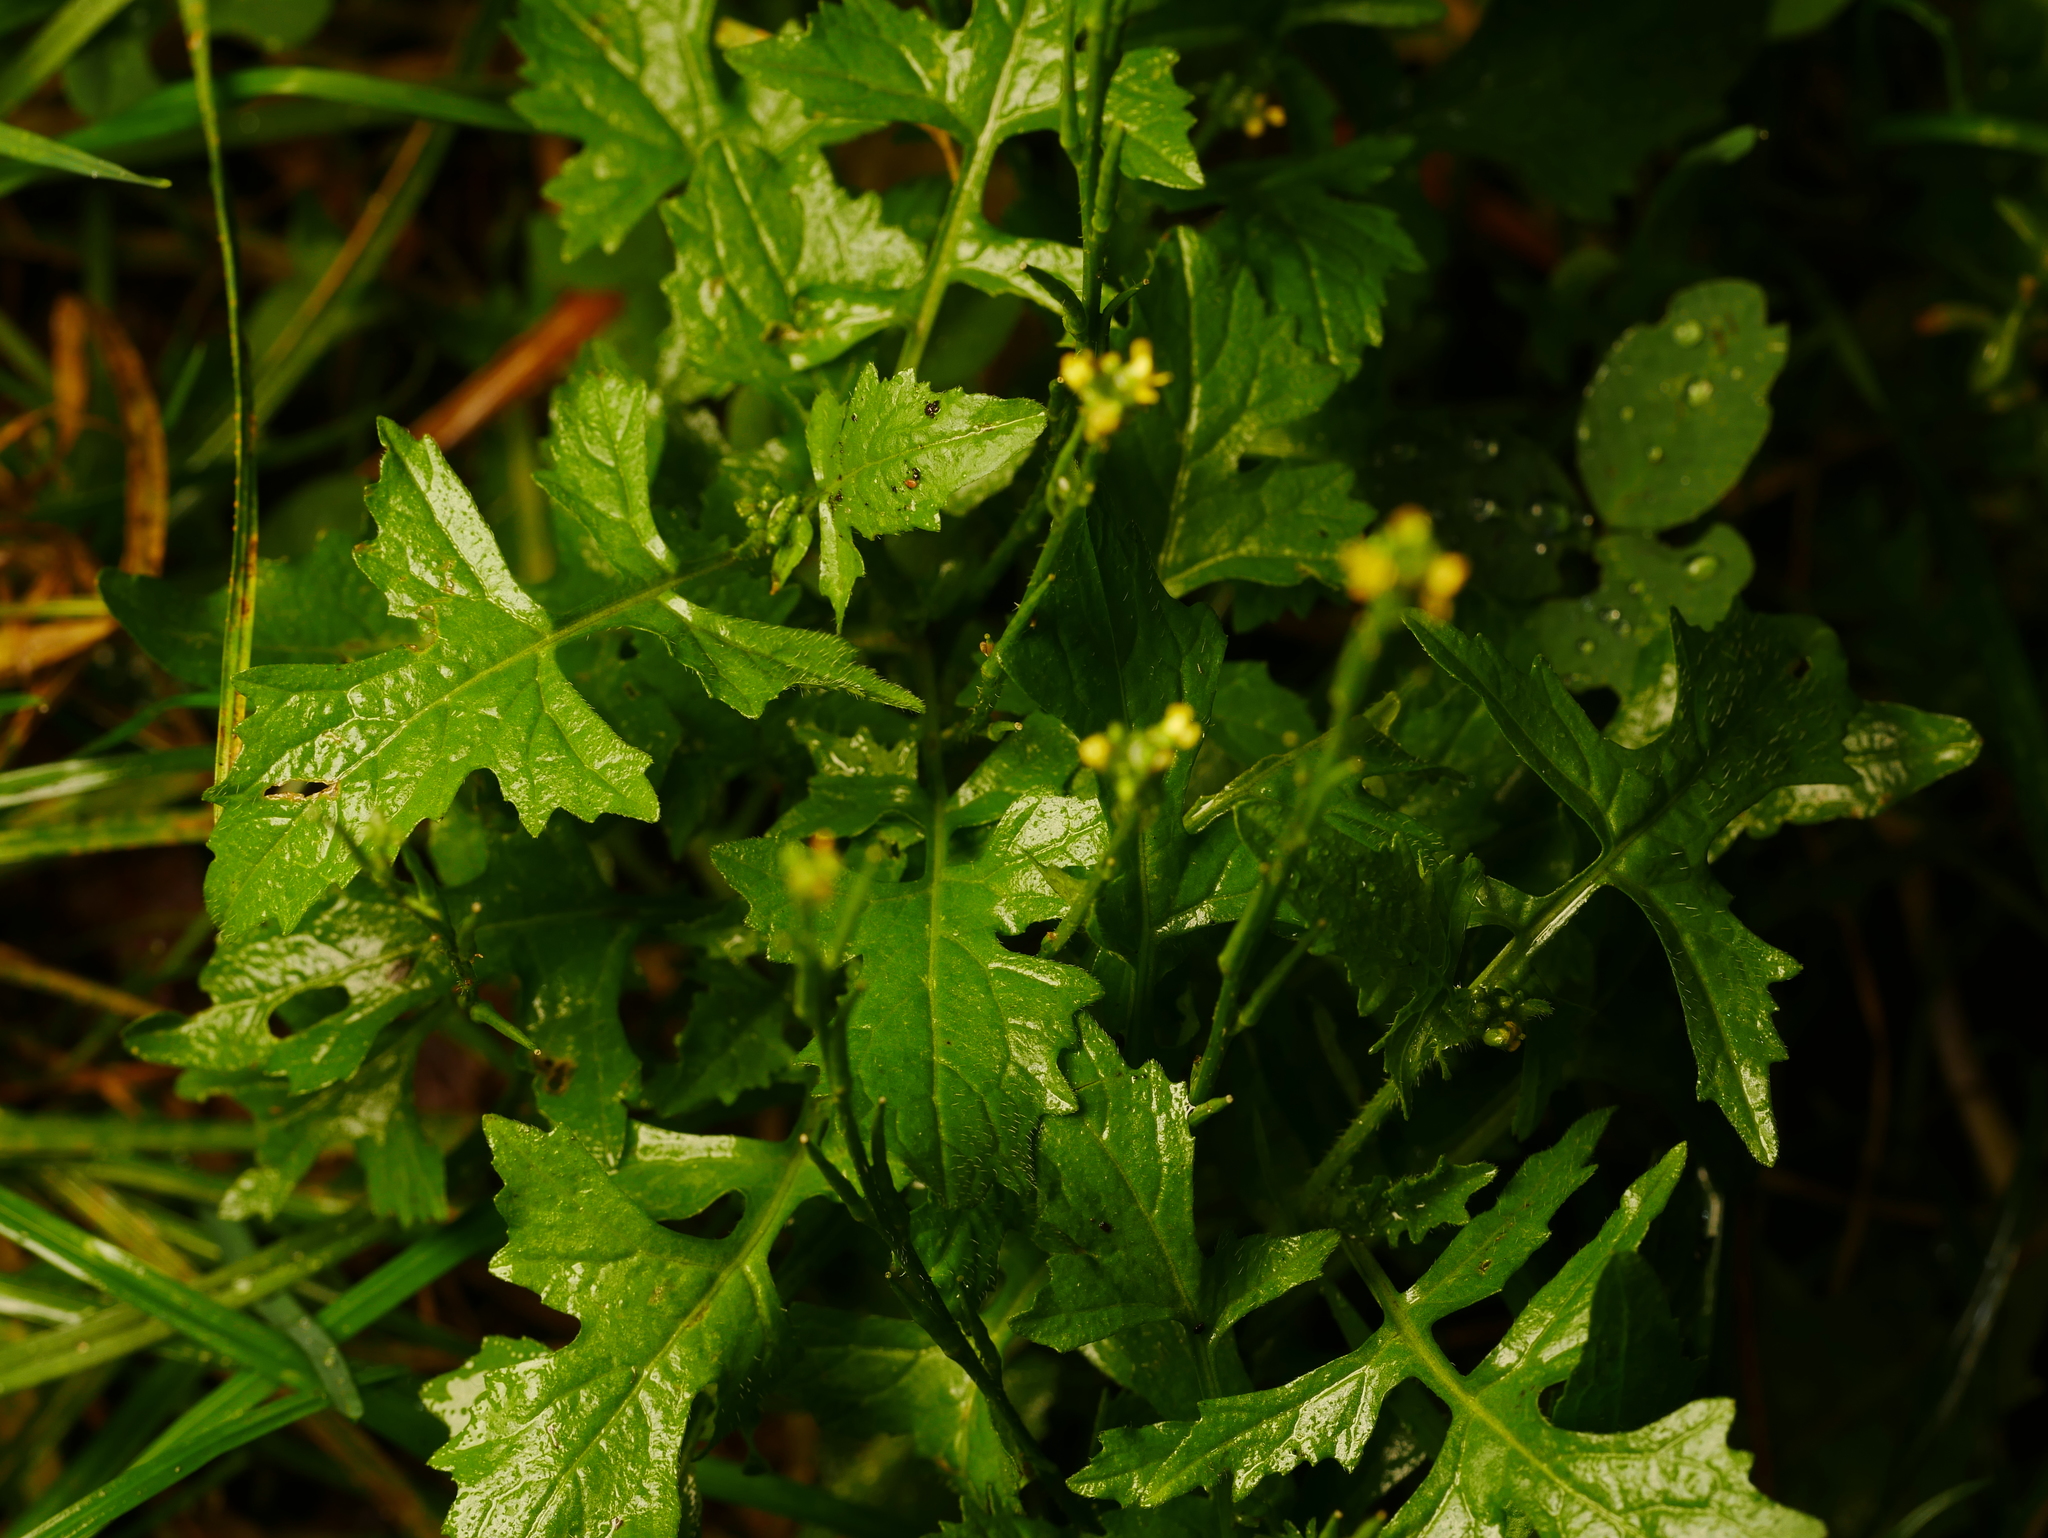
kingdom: Plantae
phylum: Tracheophyta
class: Magnoliopsida
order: Brassicales
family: Brassicaceae
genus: Sisymbrium
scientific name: Sisymbrium officinale
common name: Hedge mustard
